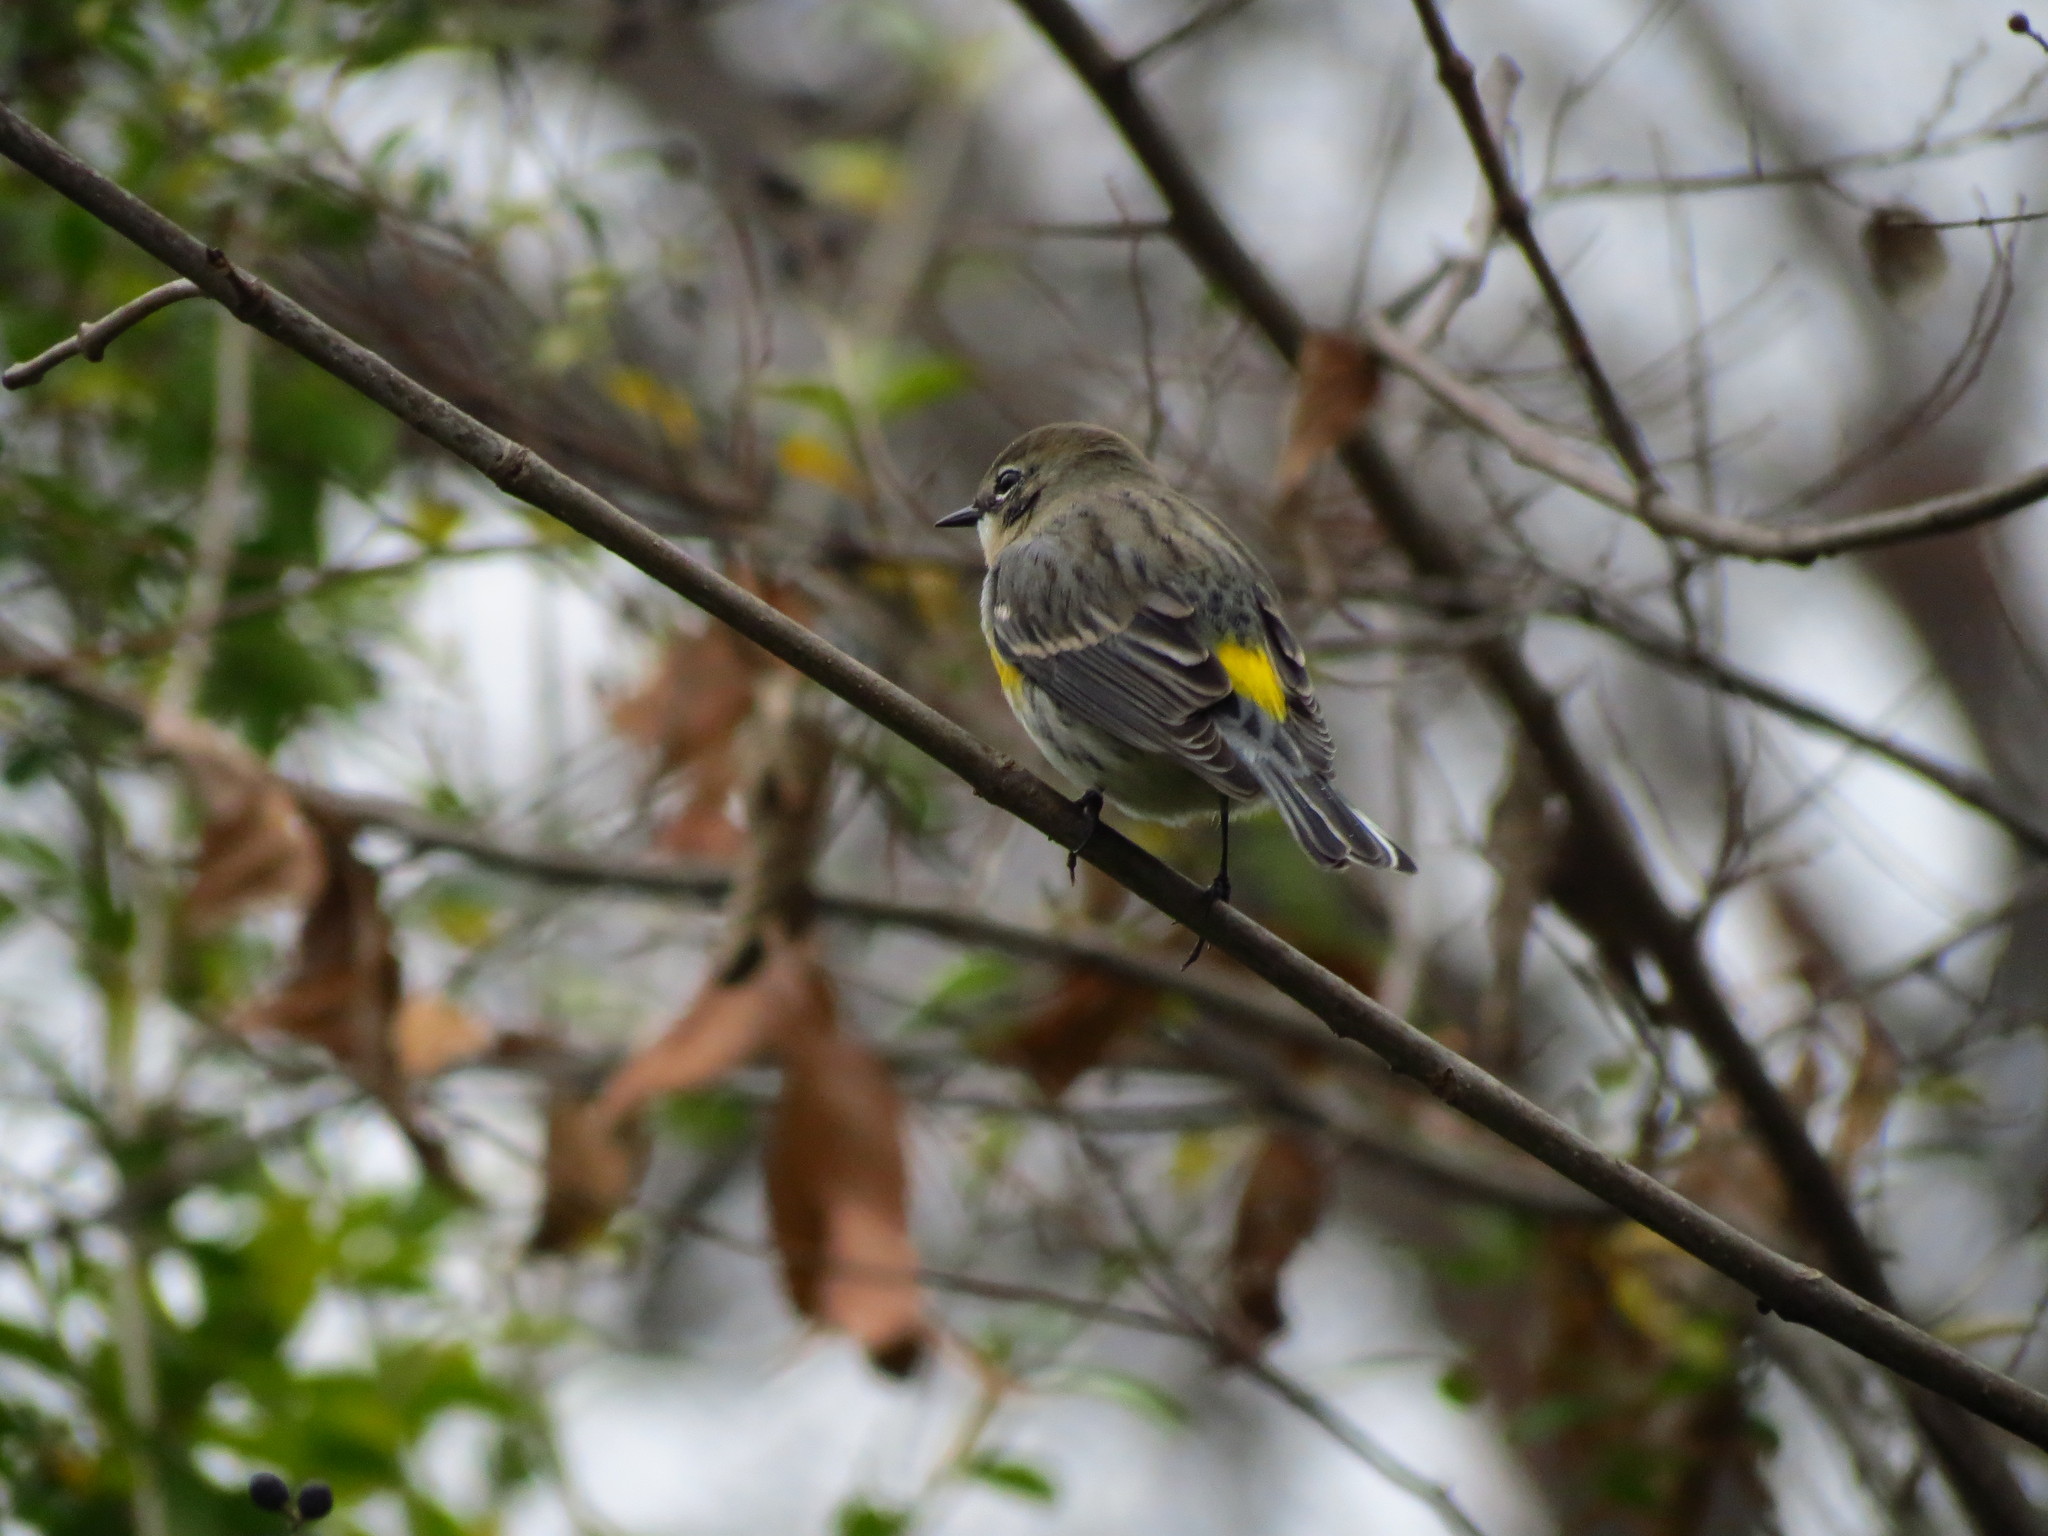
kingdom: Animalia
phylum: Chordata
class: Aves
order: Passeriformes
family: Parulidae
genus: Setophaga
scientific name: Setophaga coronata
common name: Myrtle warbler
